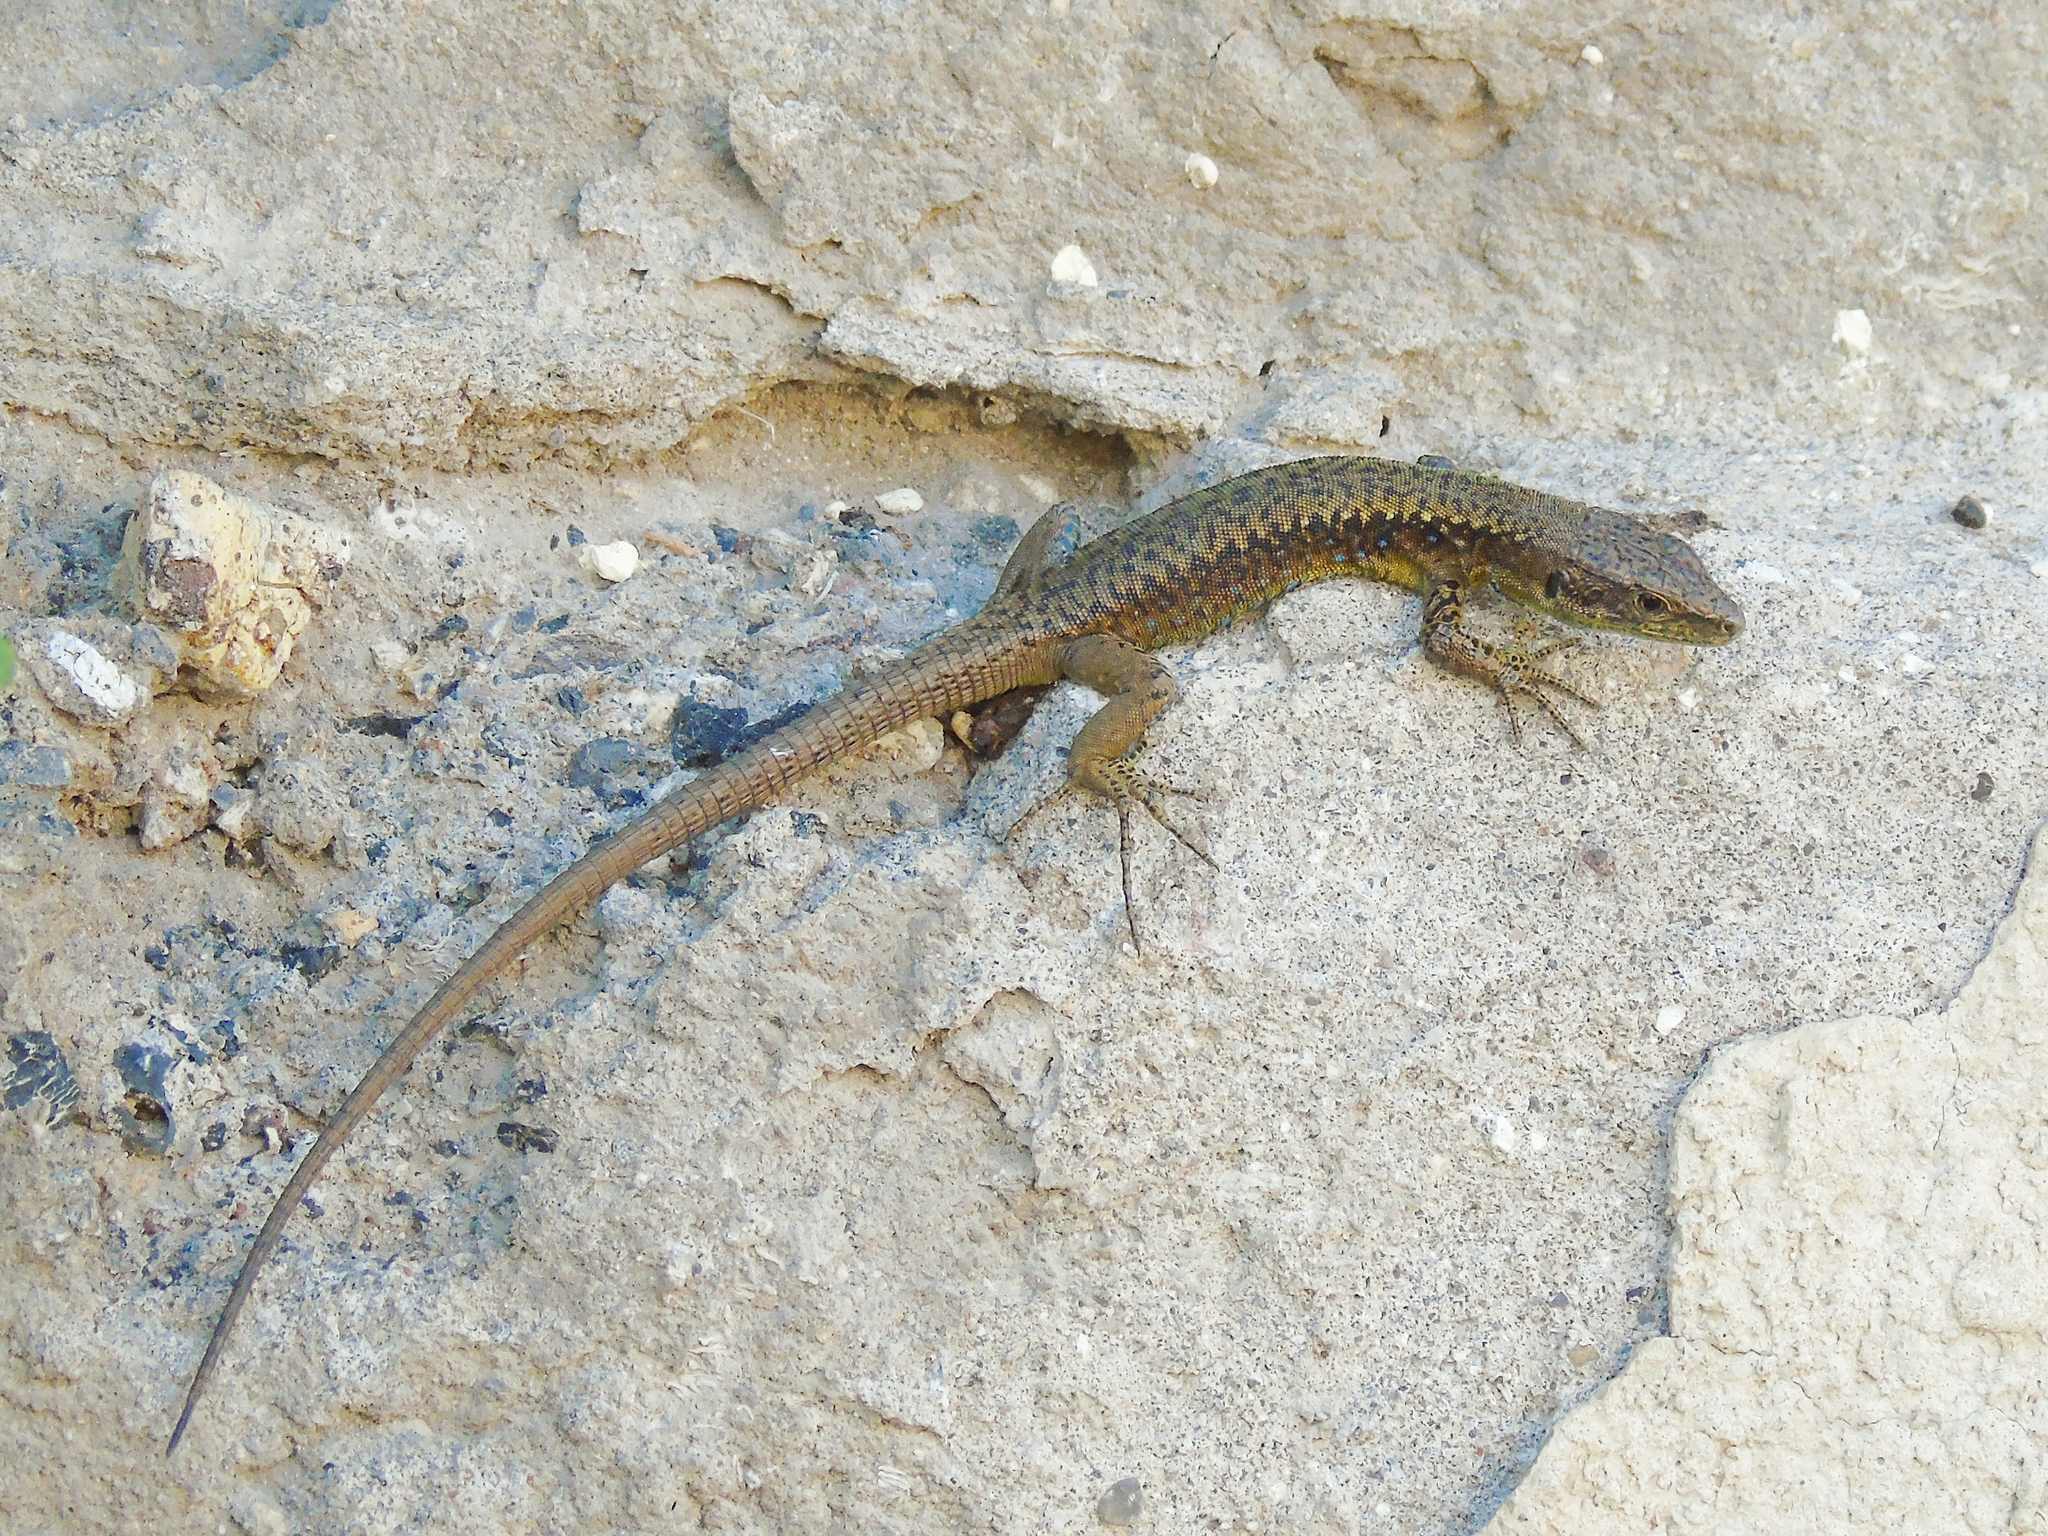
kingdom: Animalia
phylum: Chordata
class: Squamata
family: Lacertidae
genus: Darevskia
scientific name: Darevskia rudis
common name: Spiny-tailed lizard
